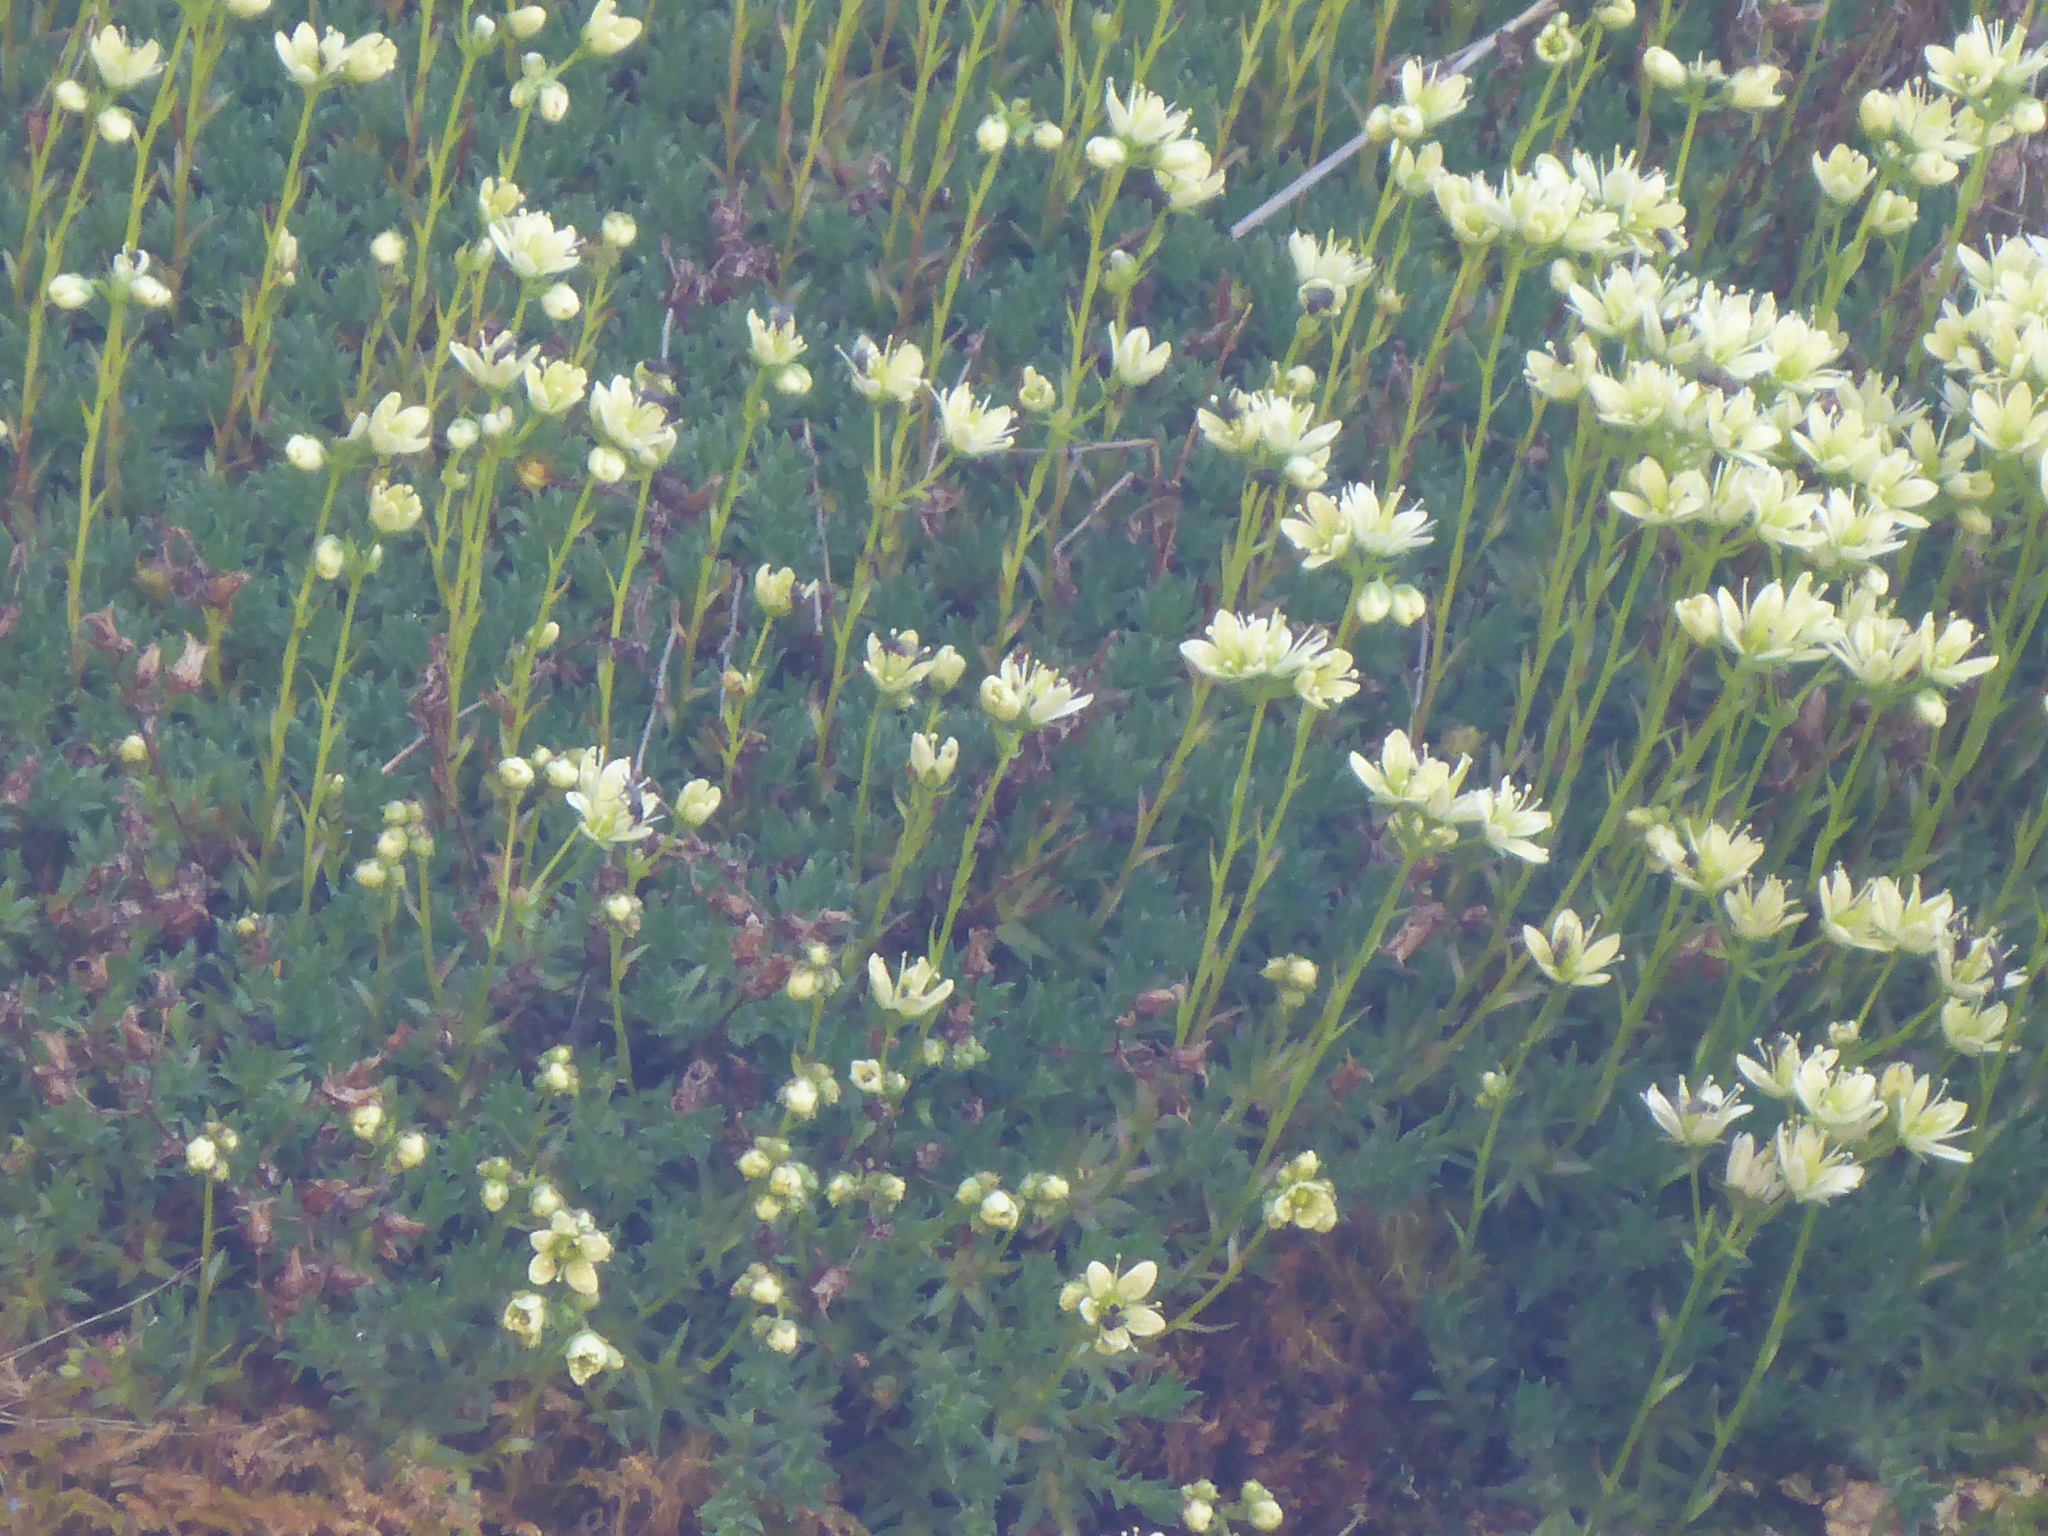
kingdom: Plantae
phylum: Tracheophyta
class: Magnoliopsida
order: Saxifragales
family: Saxifragaceae
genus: Saxifraga
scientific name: Saxifraga bronchialis
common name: Matted saxifrage
